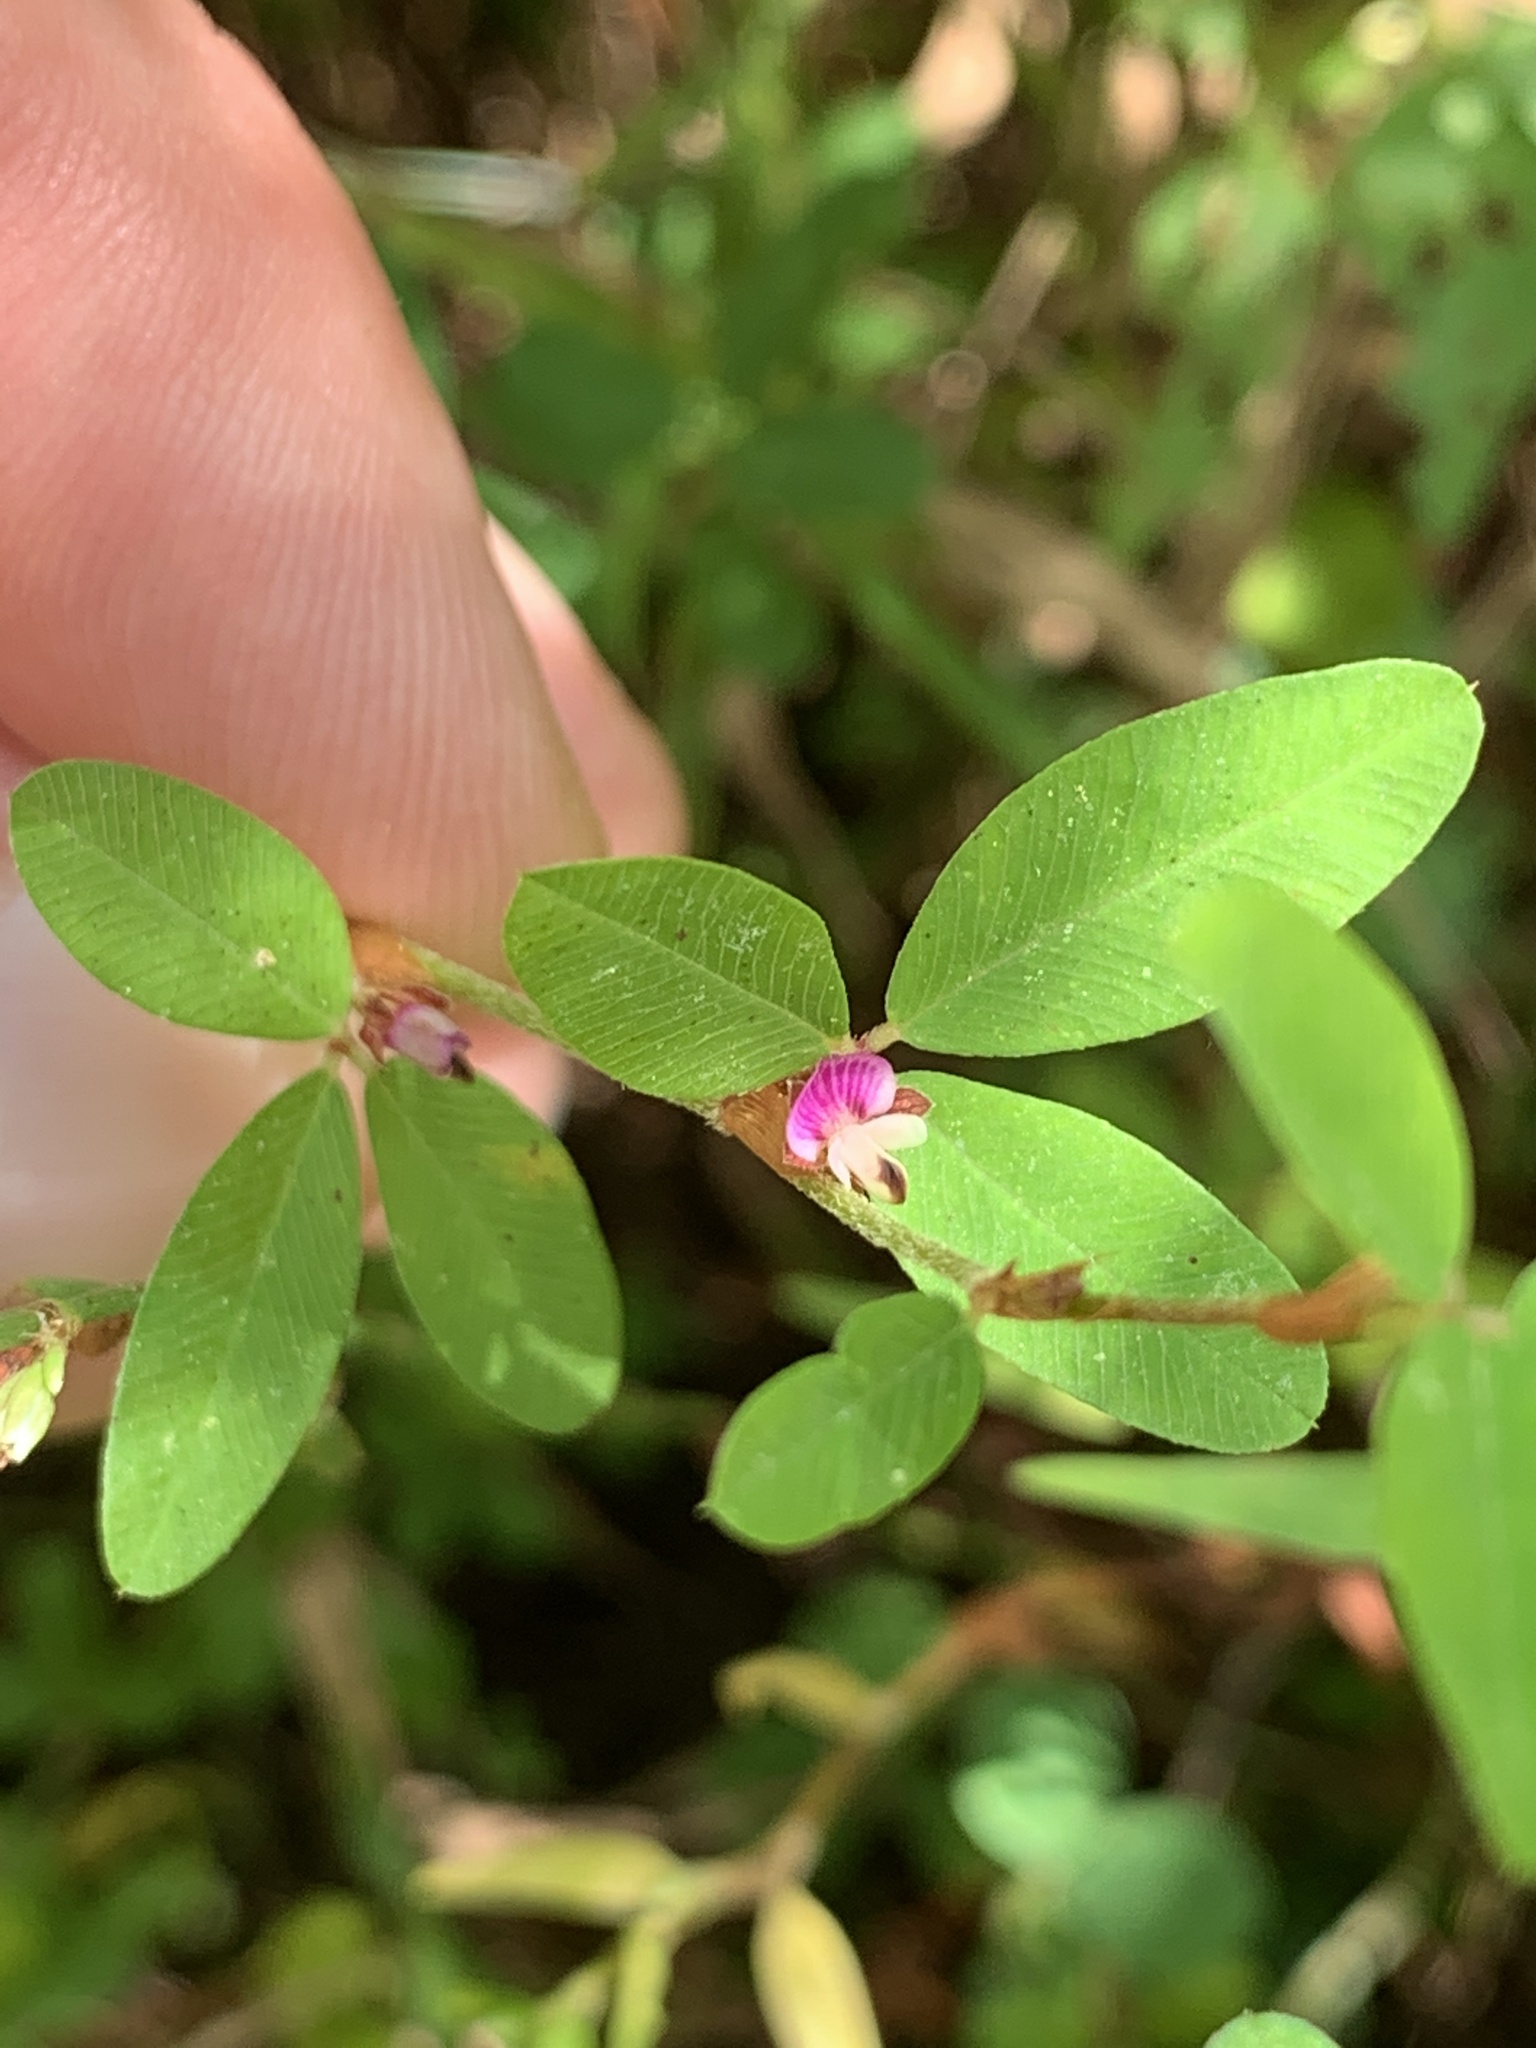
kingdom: Plantae
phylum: Tracheophyta
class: Magnoliopsida
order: Fabales
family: Fabaceae
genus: Kummerowia
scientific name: Kummerowia striata
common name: Japanese clover
